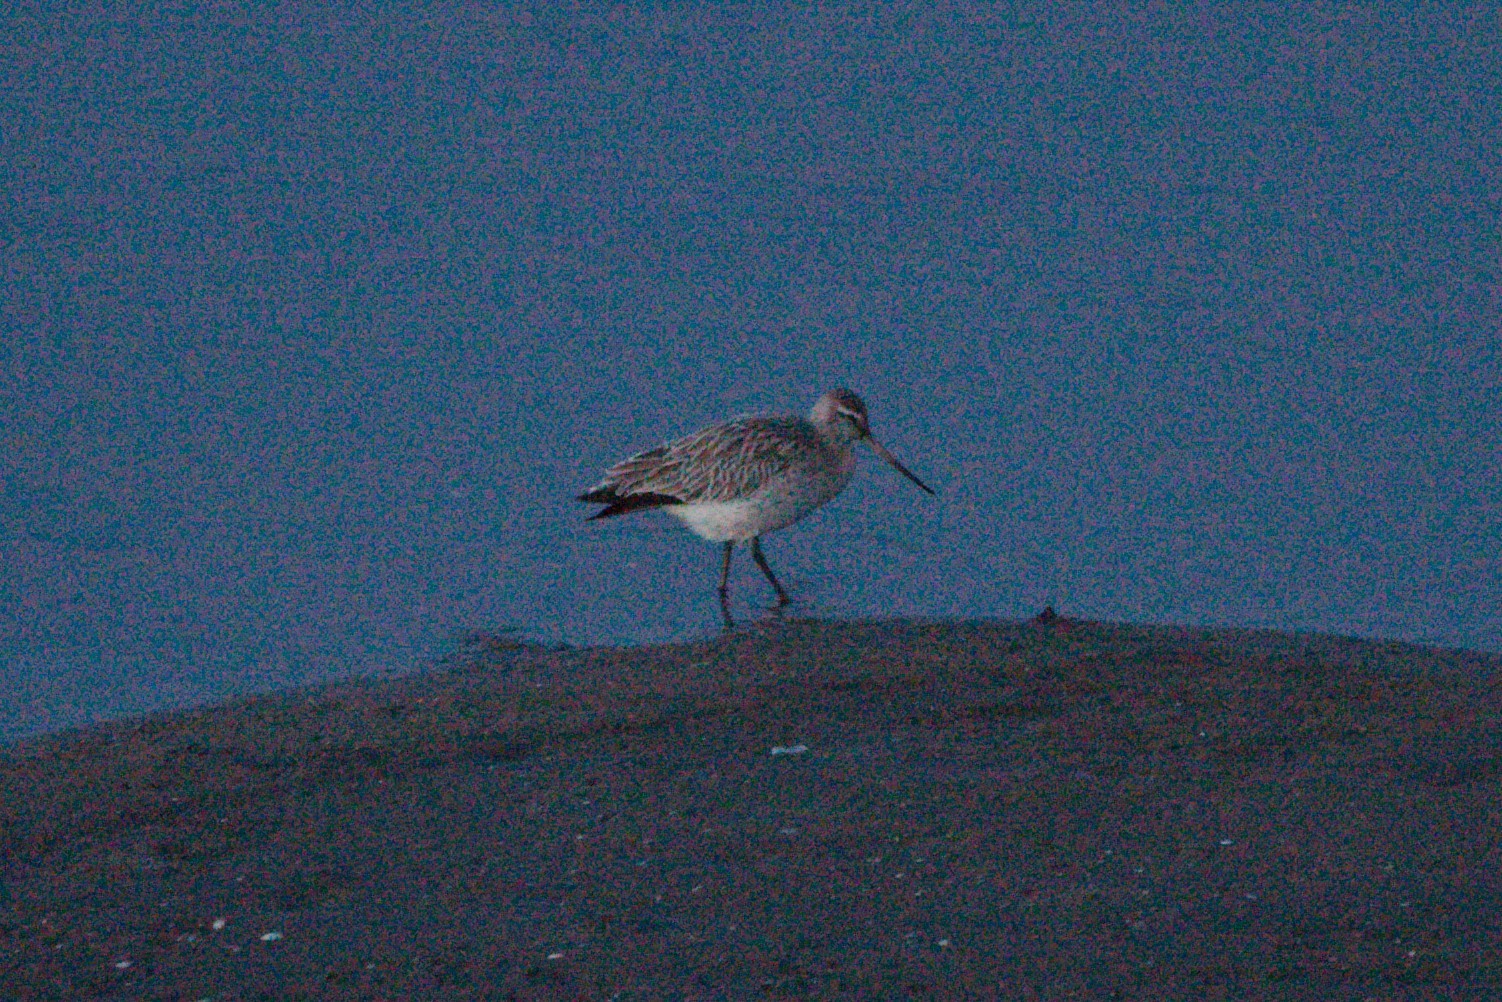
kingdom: Animalia
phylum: Chordata
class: Aves
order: Charadriiformes
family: Scolopacidae
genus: Limosa
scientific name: Limosa lapponica
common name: Bar-tailed godwit
